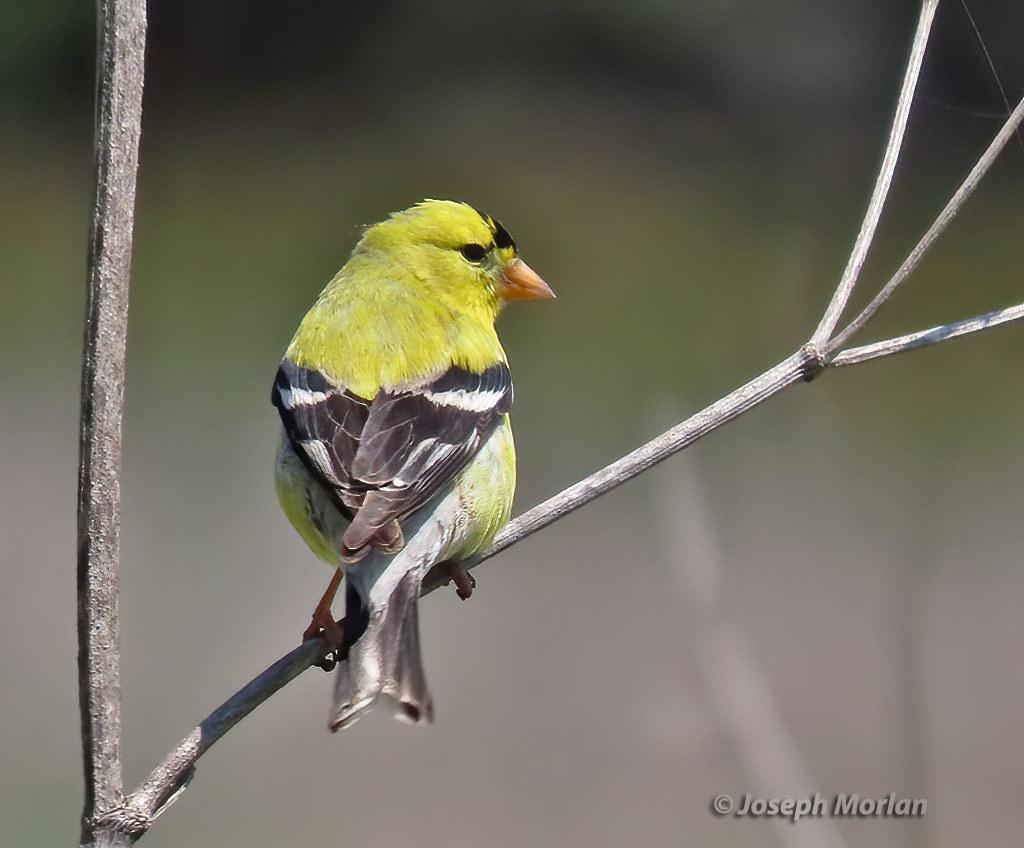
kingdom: Animalia
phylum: Chordata
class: Aves
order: Passeriformes
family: Fringillidae
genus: Spinus
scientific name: Spinus tristis
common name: American goldfinch
